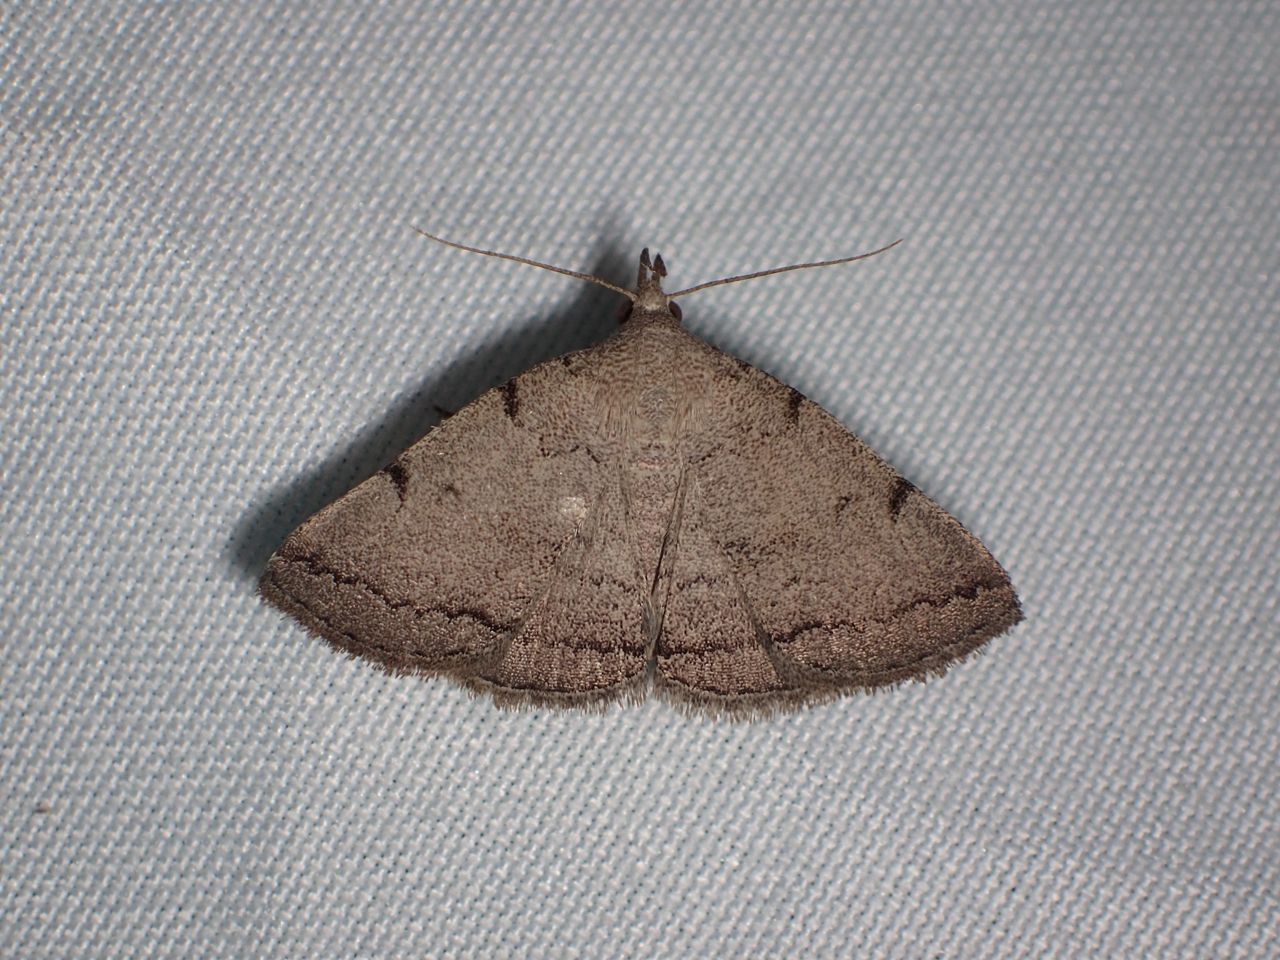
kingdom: Animalia
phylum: Arthropoda
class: Insecta
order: Lepidoptera
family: Erebidae
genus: Zanclognatha
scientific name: Zanclognatha theralis
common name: Flagged fan-foot
